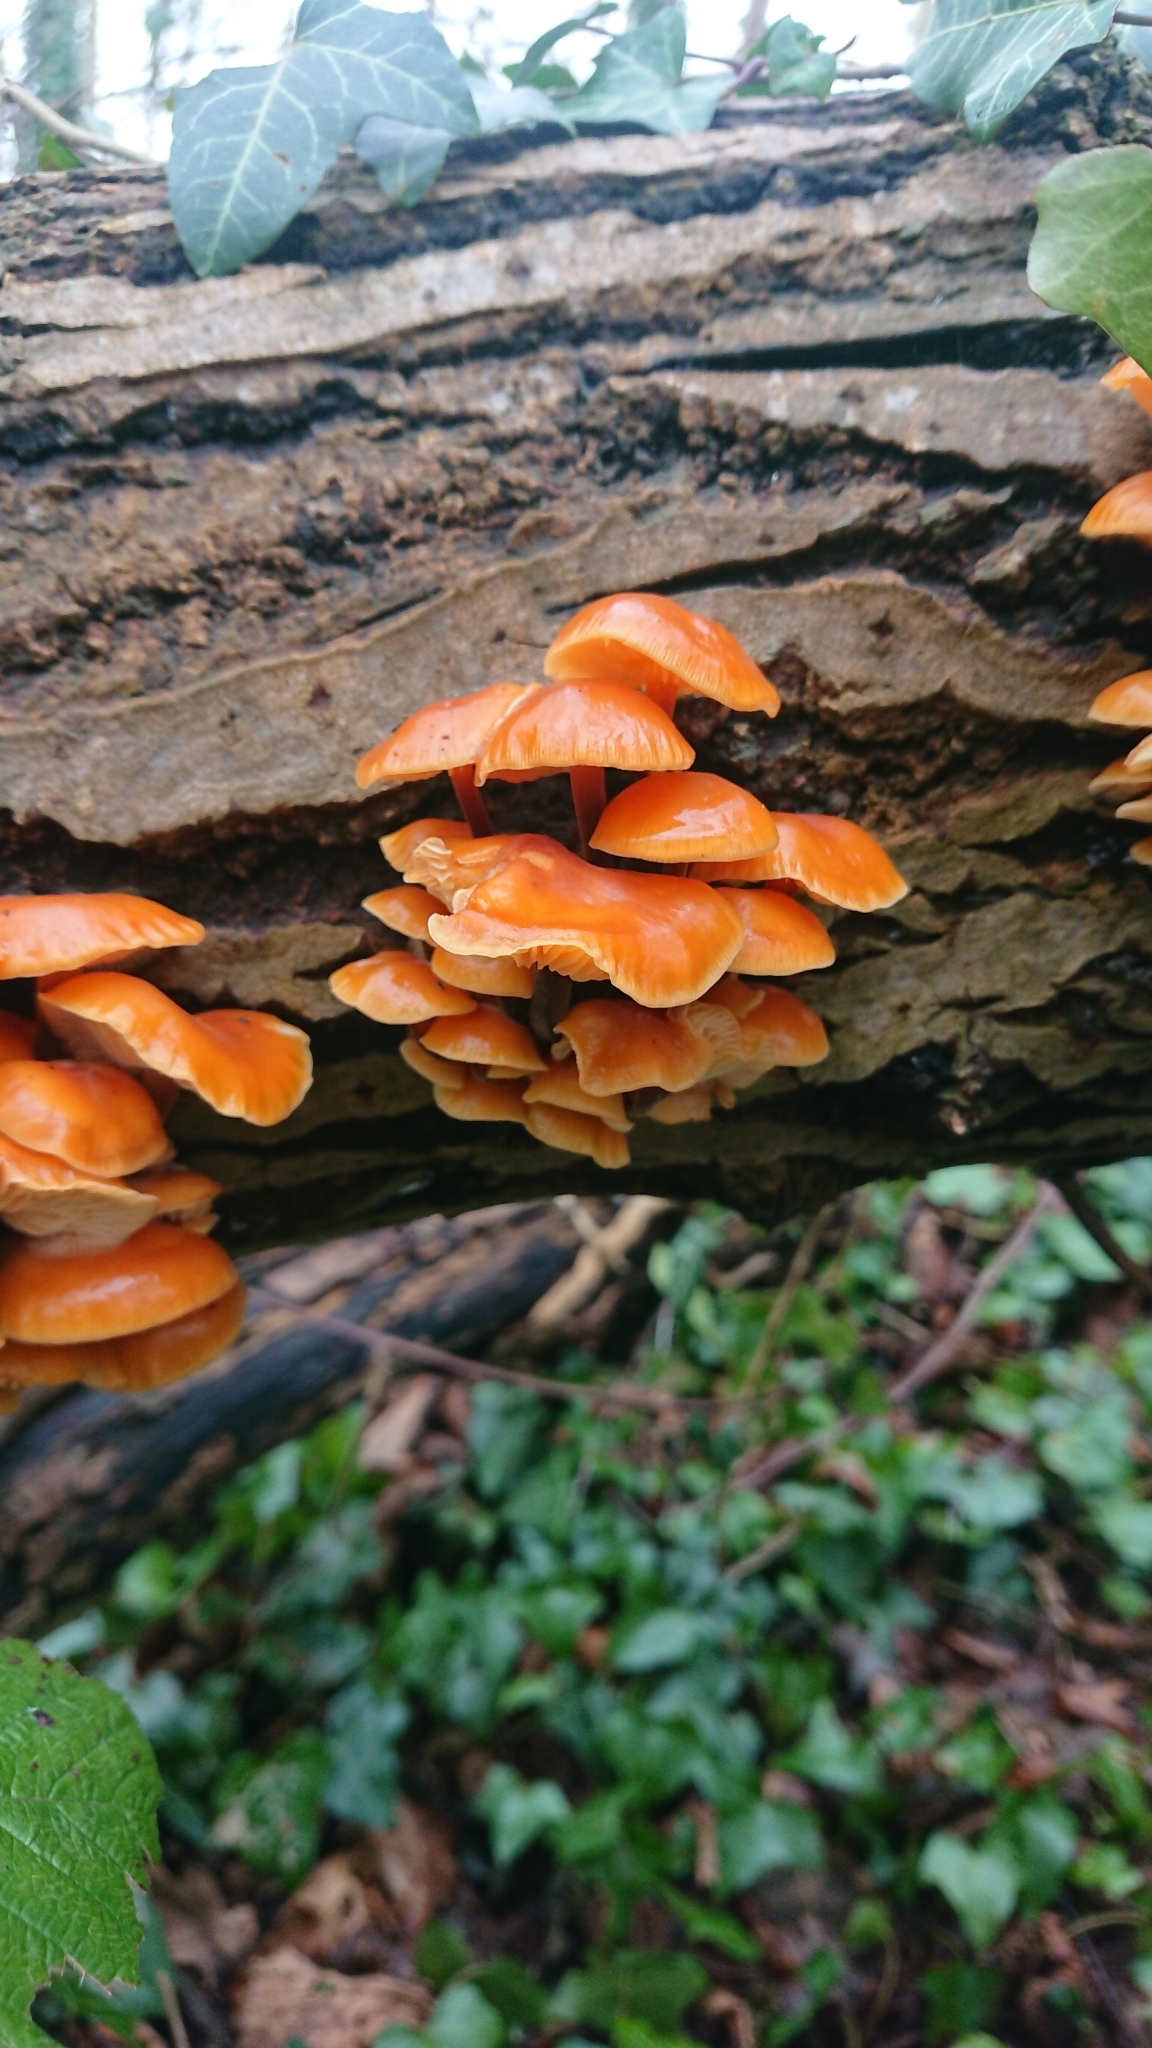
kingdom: Fungi
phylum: Basidiomycota
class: Agaricomycetes
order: Agaricales
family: Physalacriaceae
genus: Flammulina
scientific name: Flammulina
